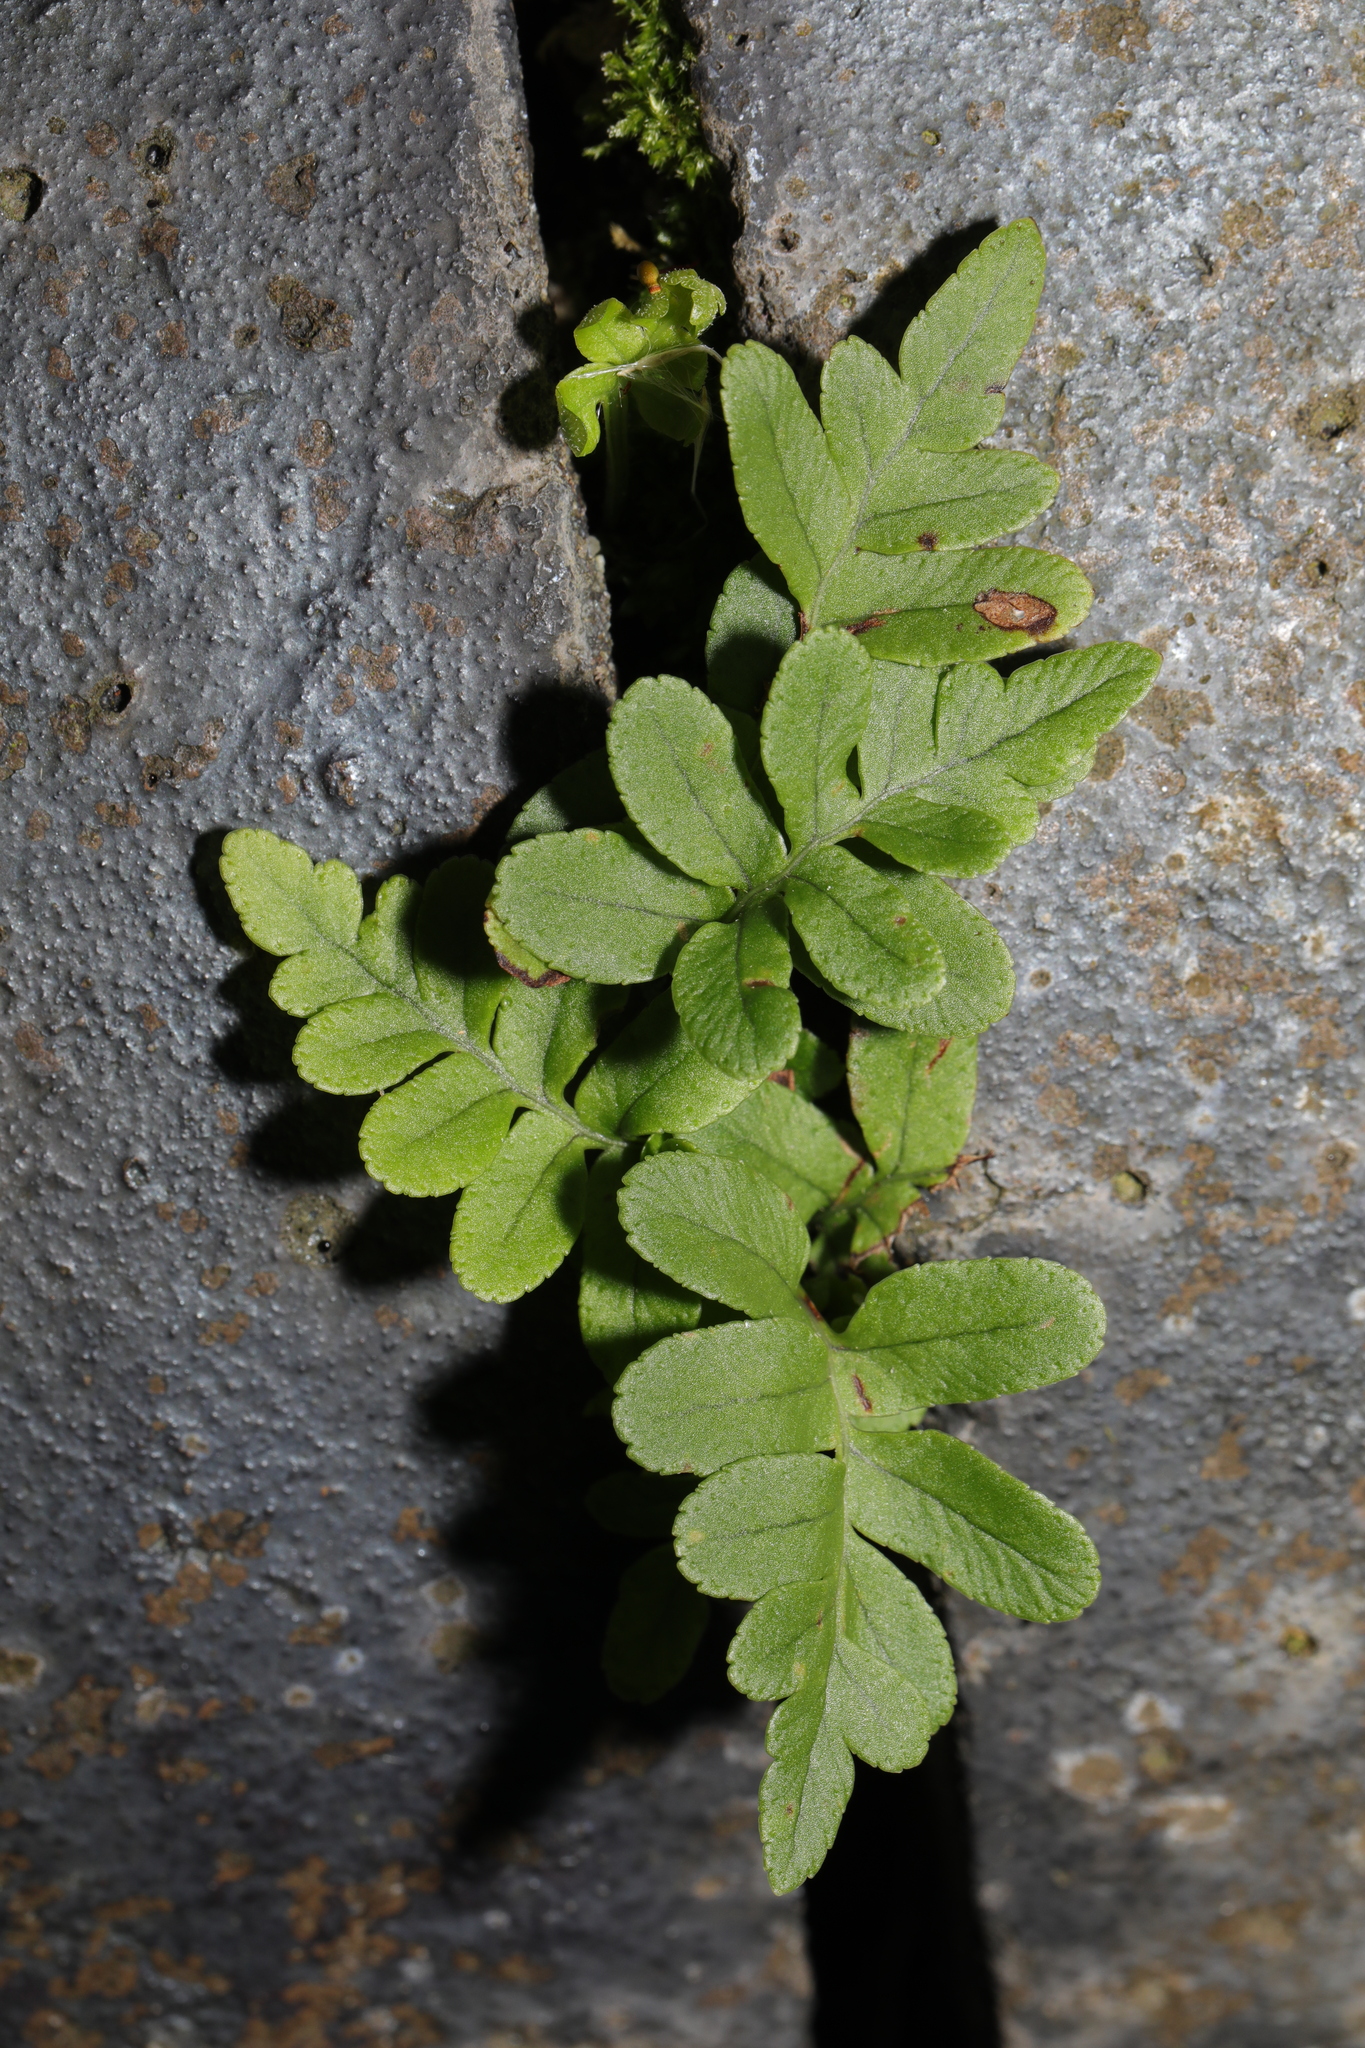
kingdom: Plantae
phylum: Tracheophyta
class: Polypodiopsida
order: Polypodiales
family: Polypodiaceae
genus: Polypodium
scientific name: Polypodium vulgare
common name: Common polypody
